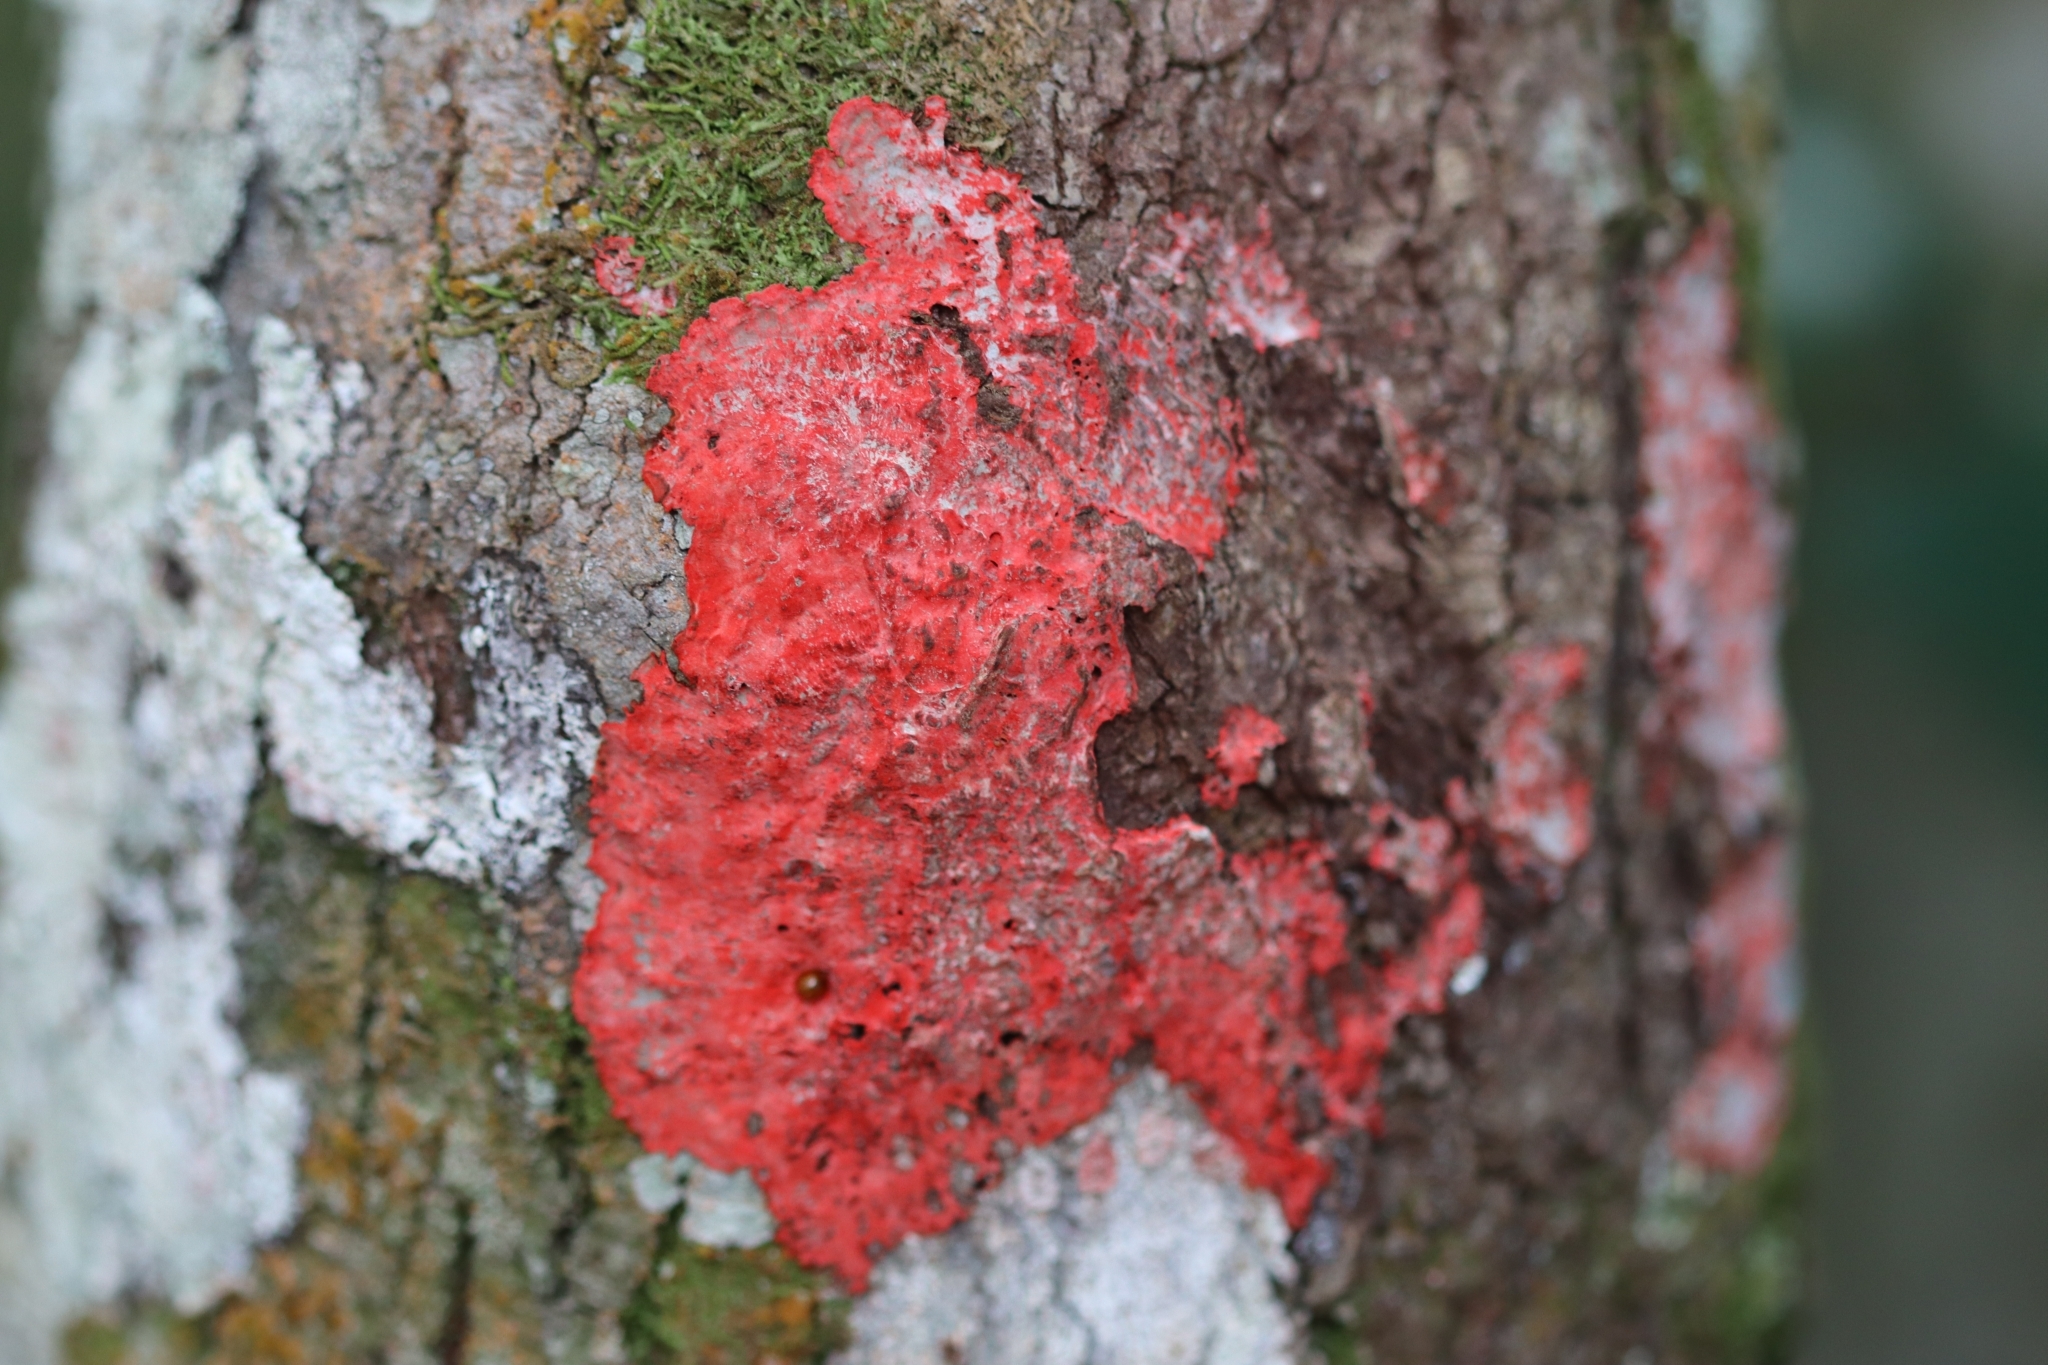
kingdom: Fungi
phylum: Ascomycota
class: Arthoniomycetes
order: Arthoniales
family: Arthoniaceae
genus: Herpothallon
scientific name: Herpothallon rubrocinctum
